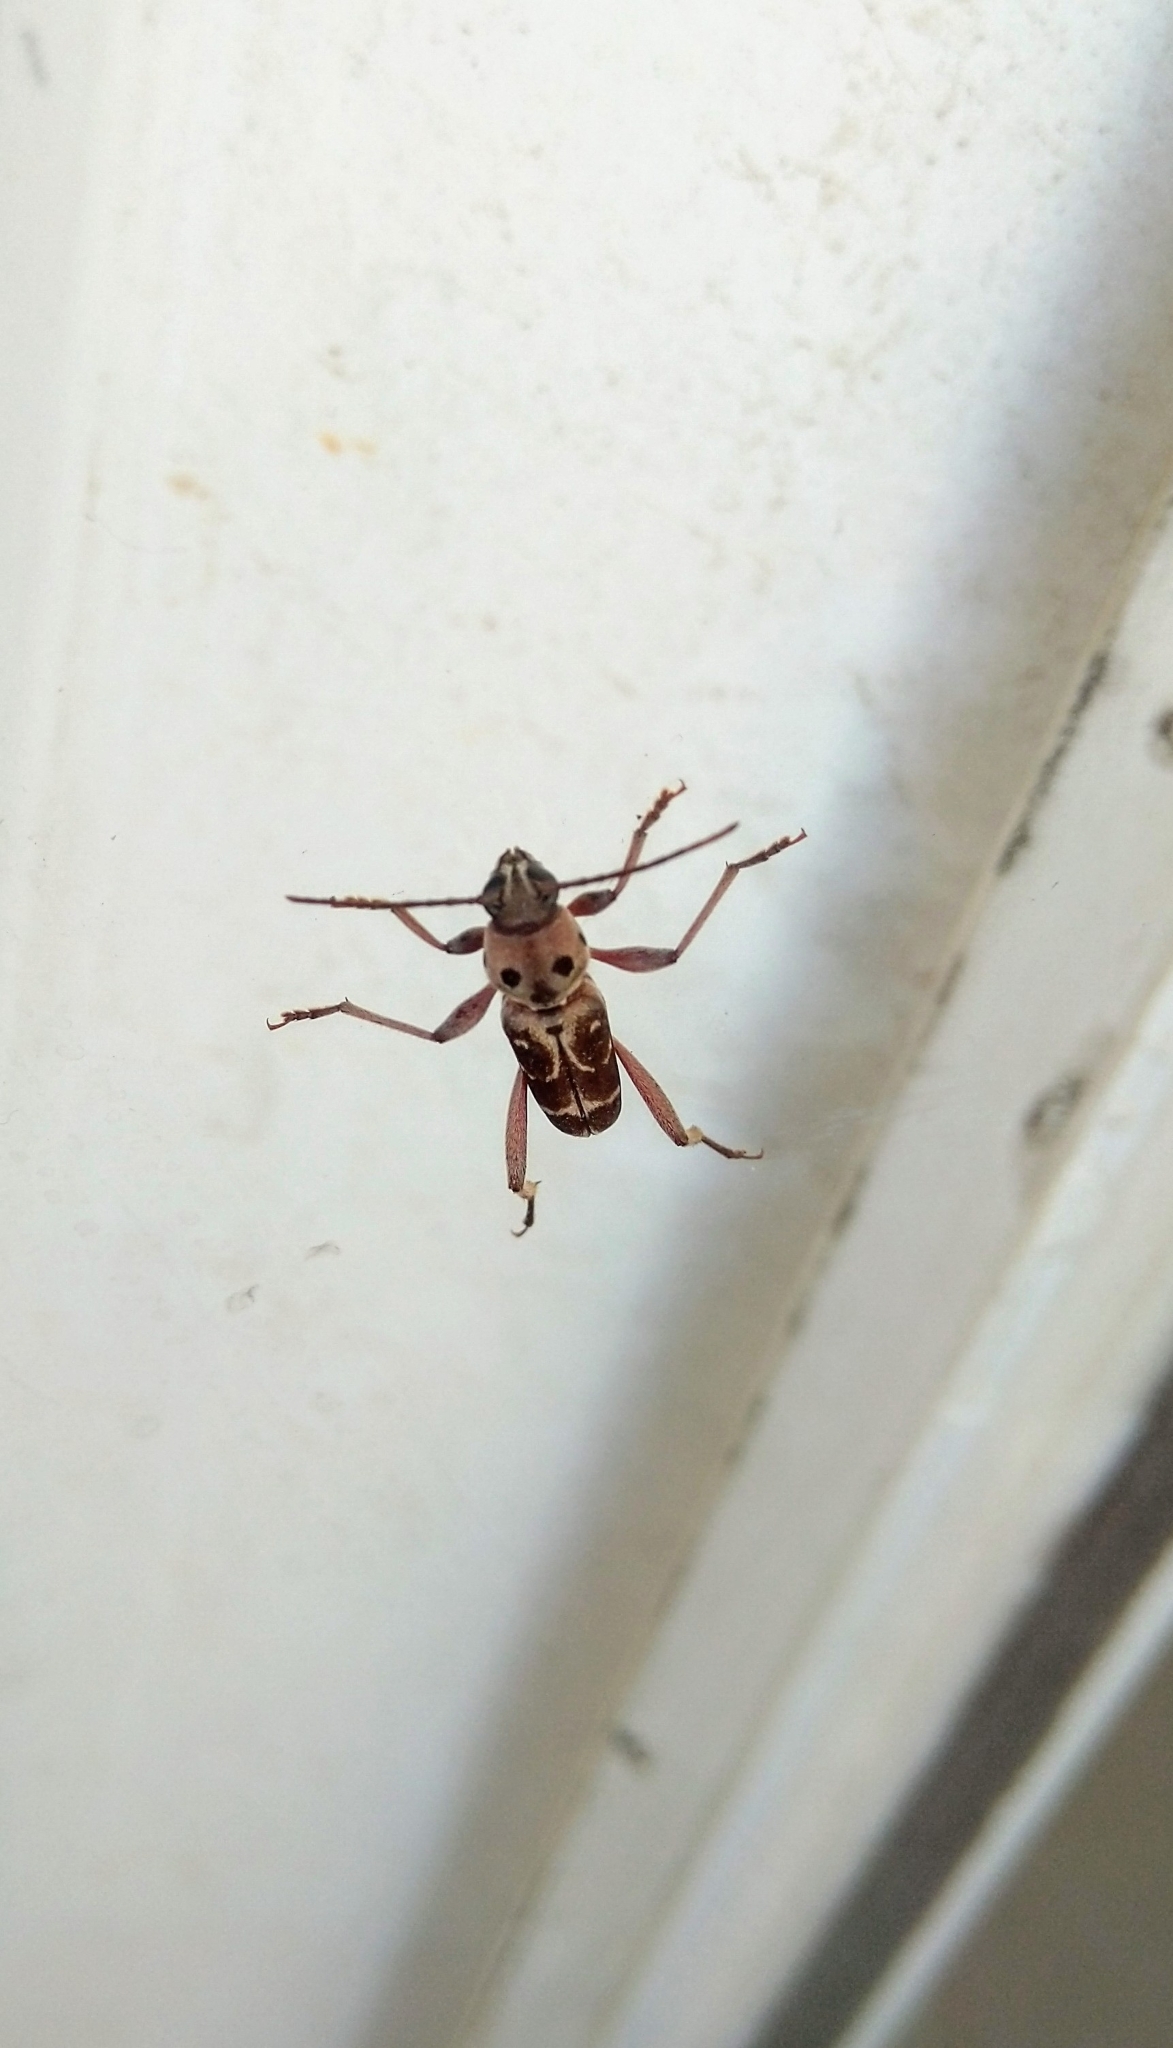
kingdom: Animalia
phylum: Arthropoda
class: Insecta
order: Coleoptera
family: Cerambycidae
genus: Xylotrechus
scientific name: Xylotrechus smei
